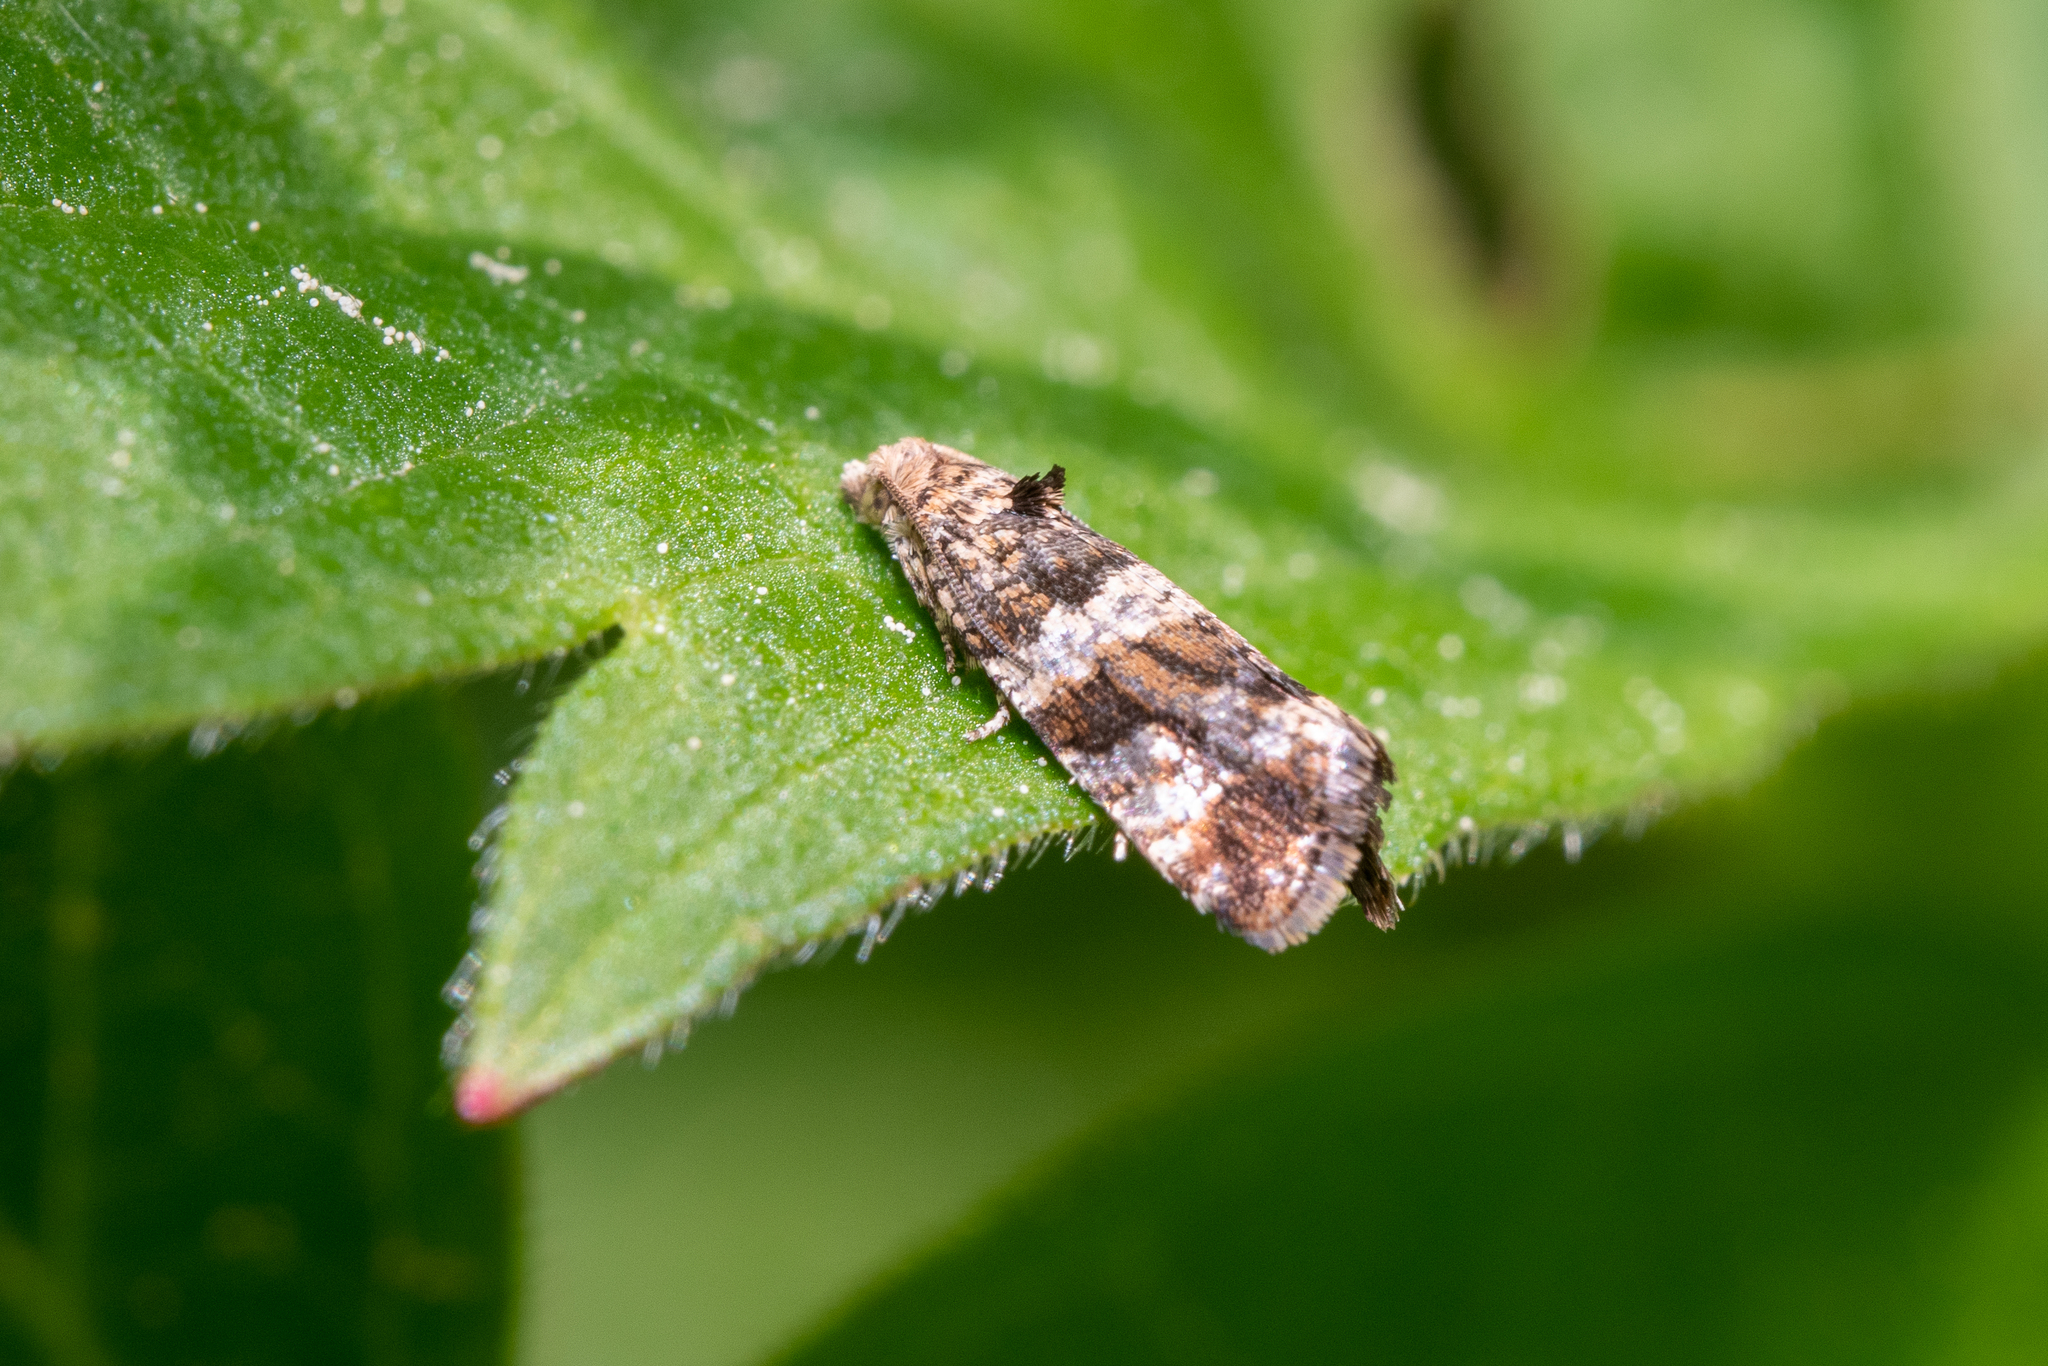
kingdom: Animalia
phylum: Arthropoda
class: Insecta
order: Lepidoptera
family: Tortricidae
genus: Lobesia
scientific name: Lobesia fuligana
